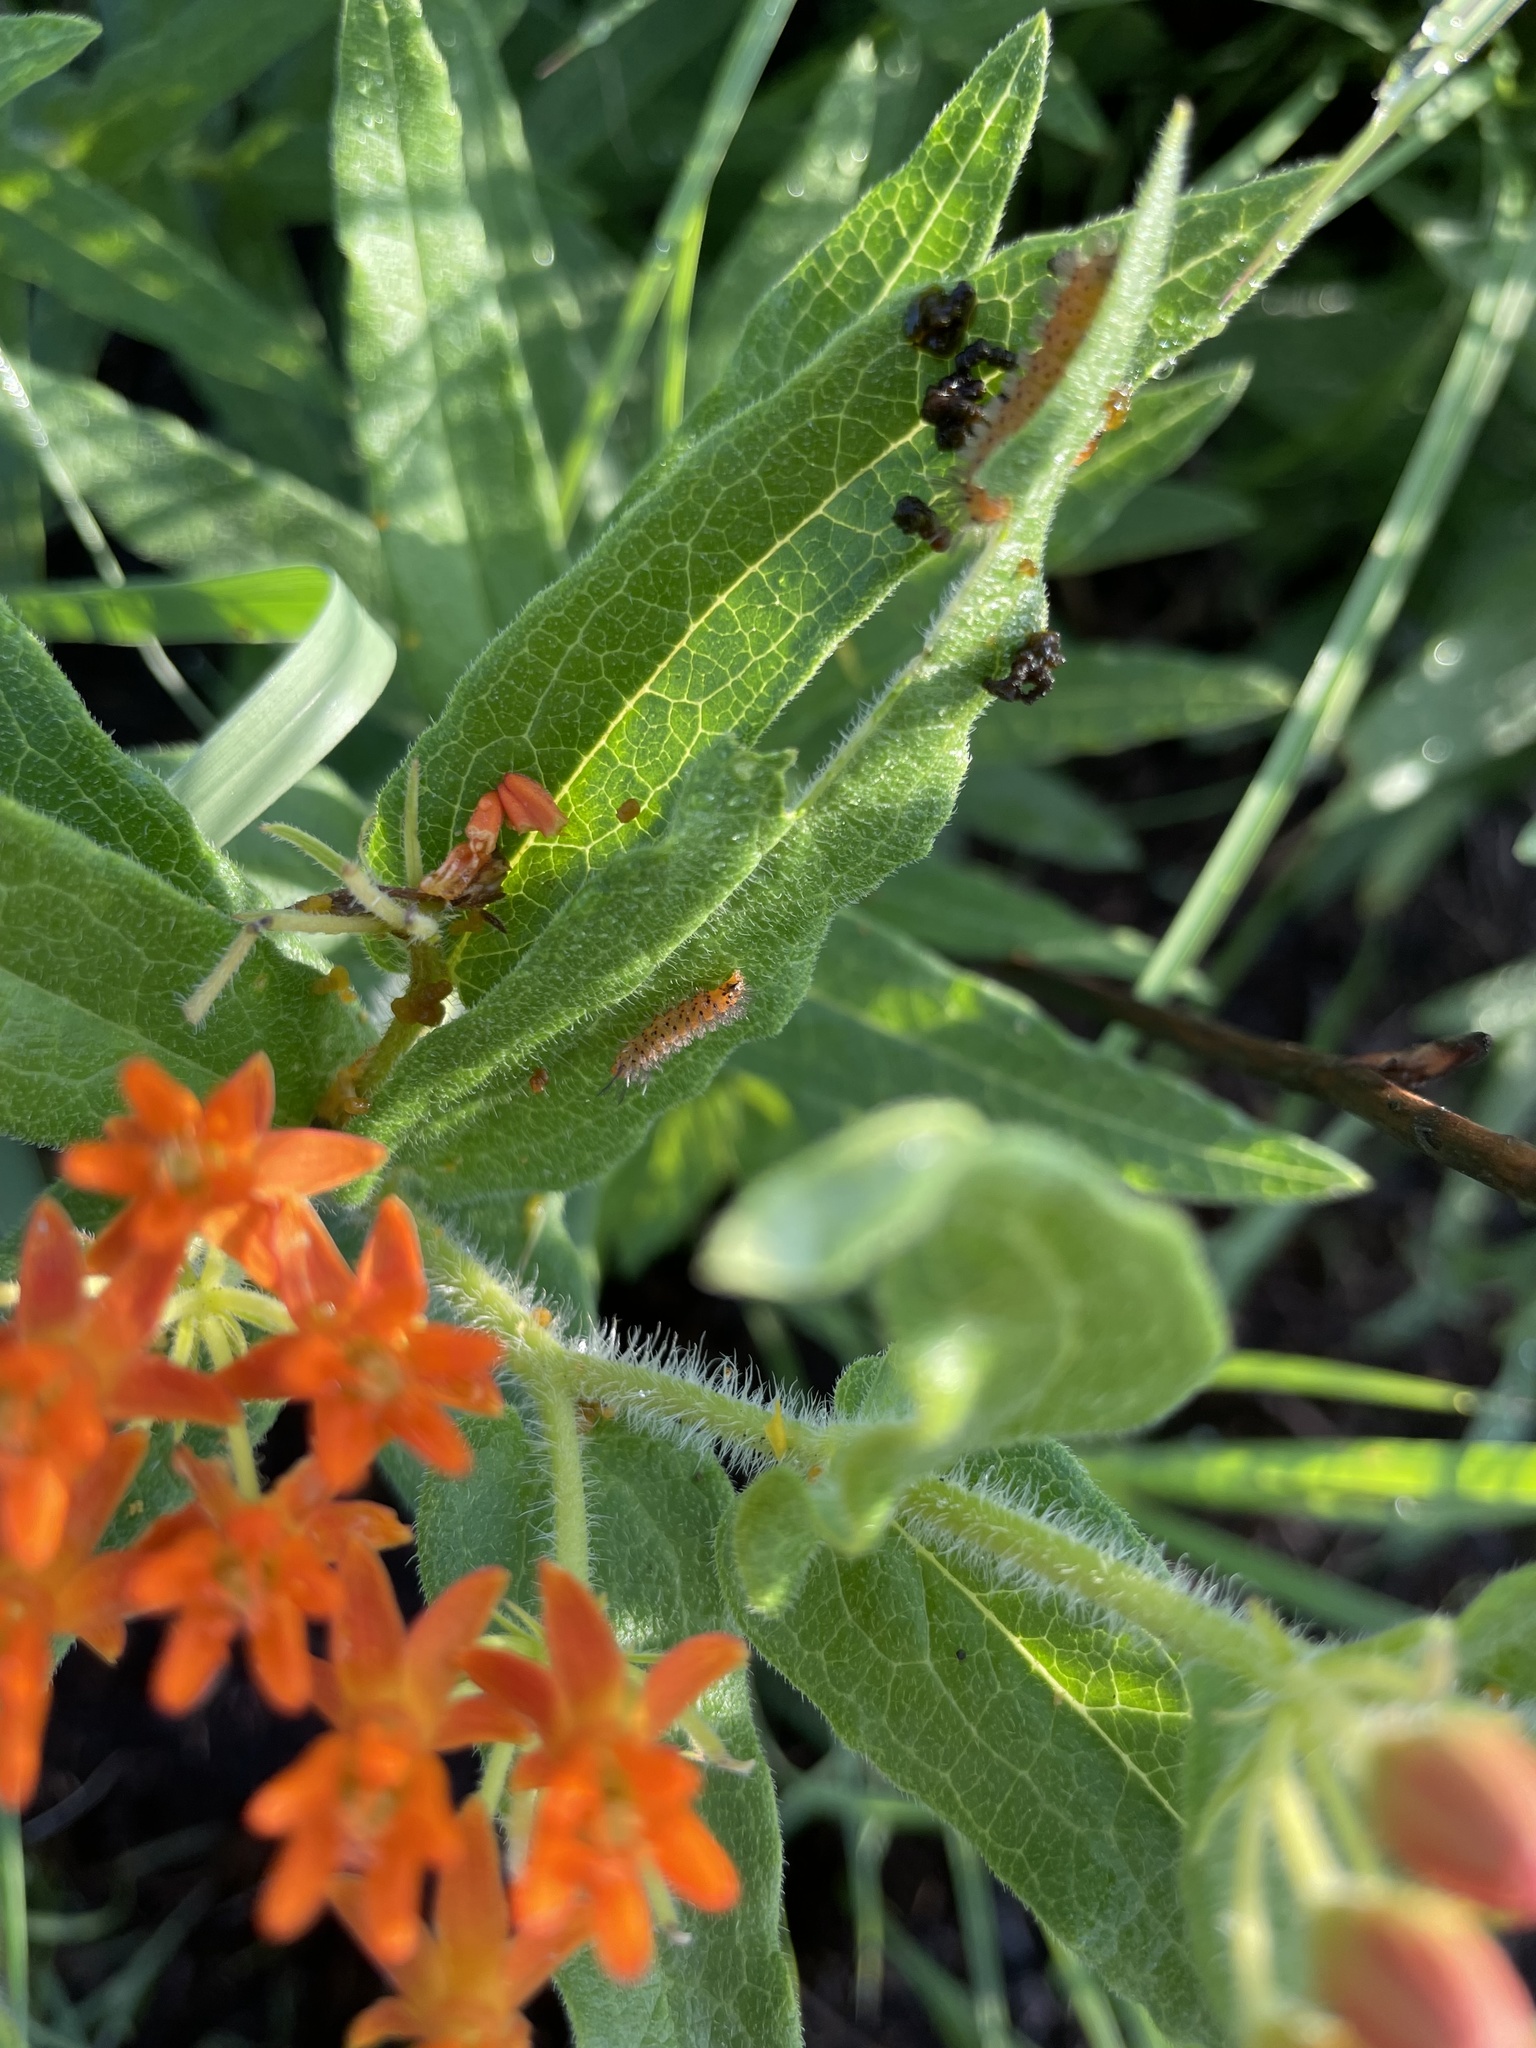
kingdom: Animalia
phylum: Arthropoda
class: Insecta
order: Lepidoptera
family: Erebidae
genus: Cycnia
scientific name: Cycnia collaris
